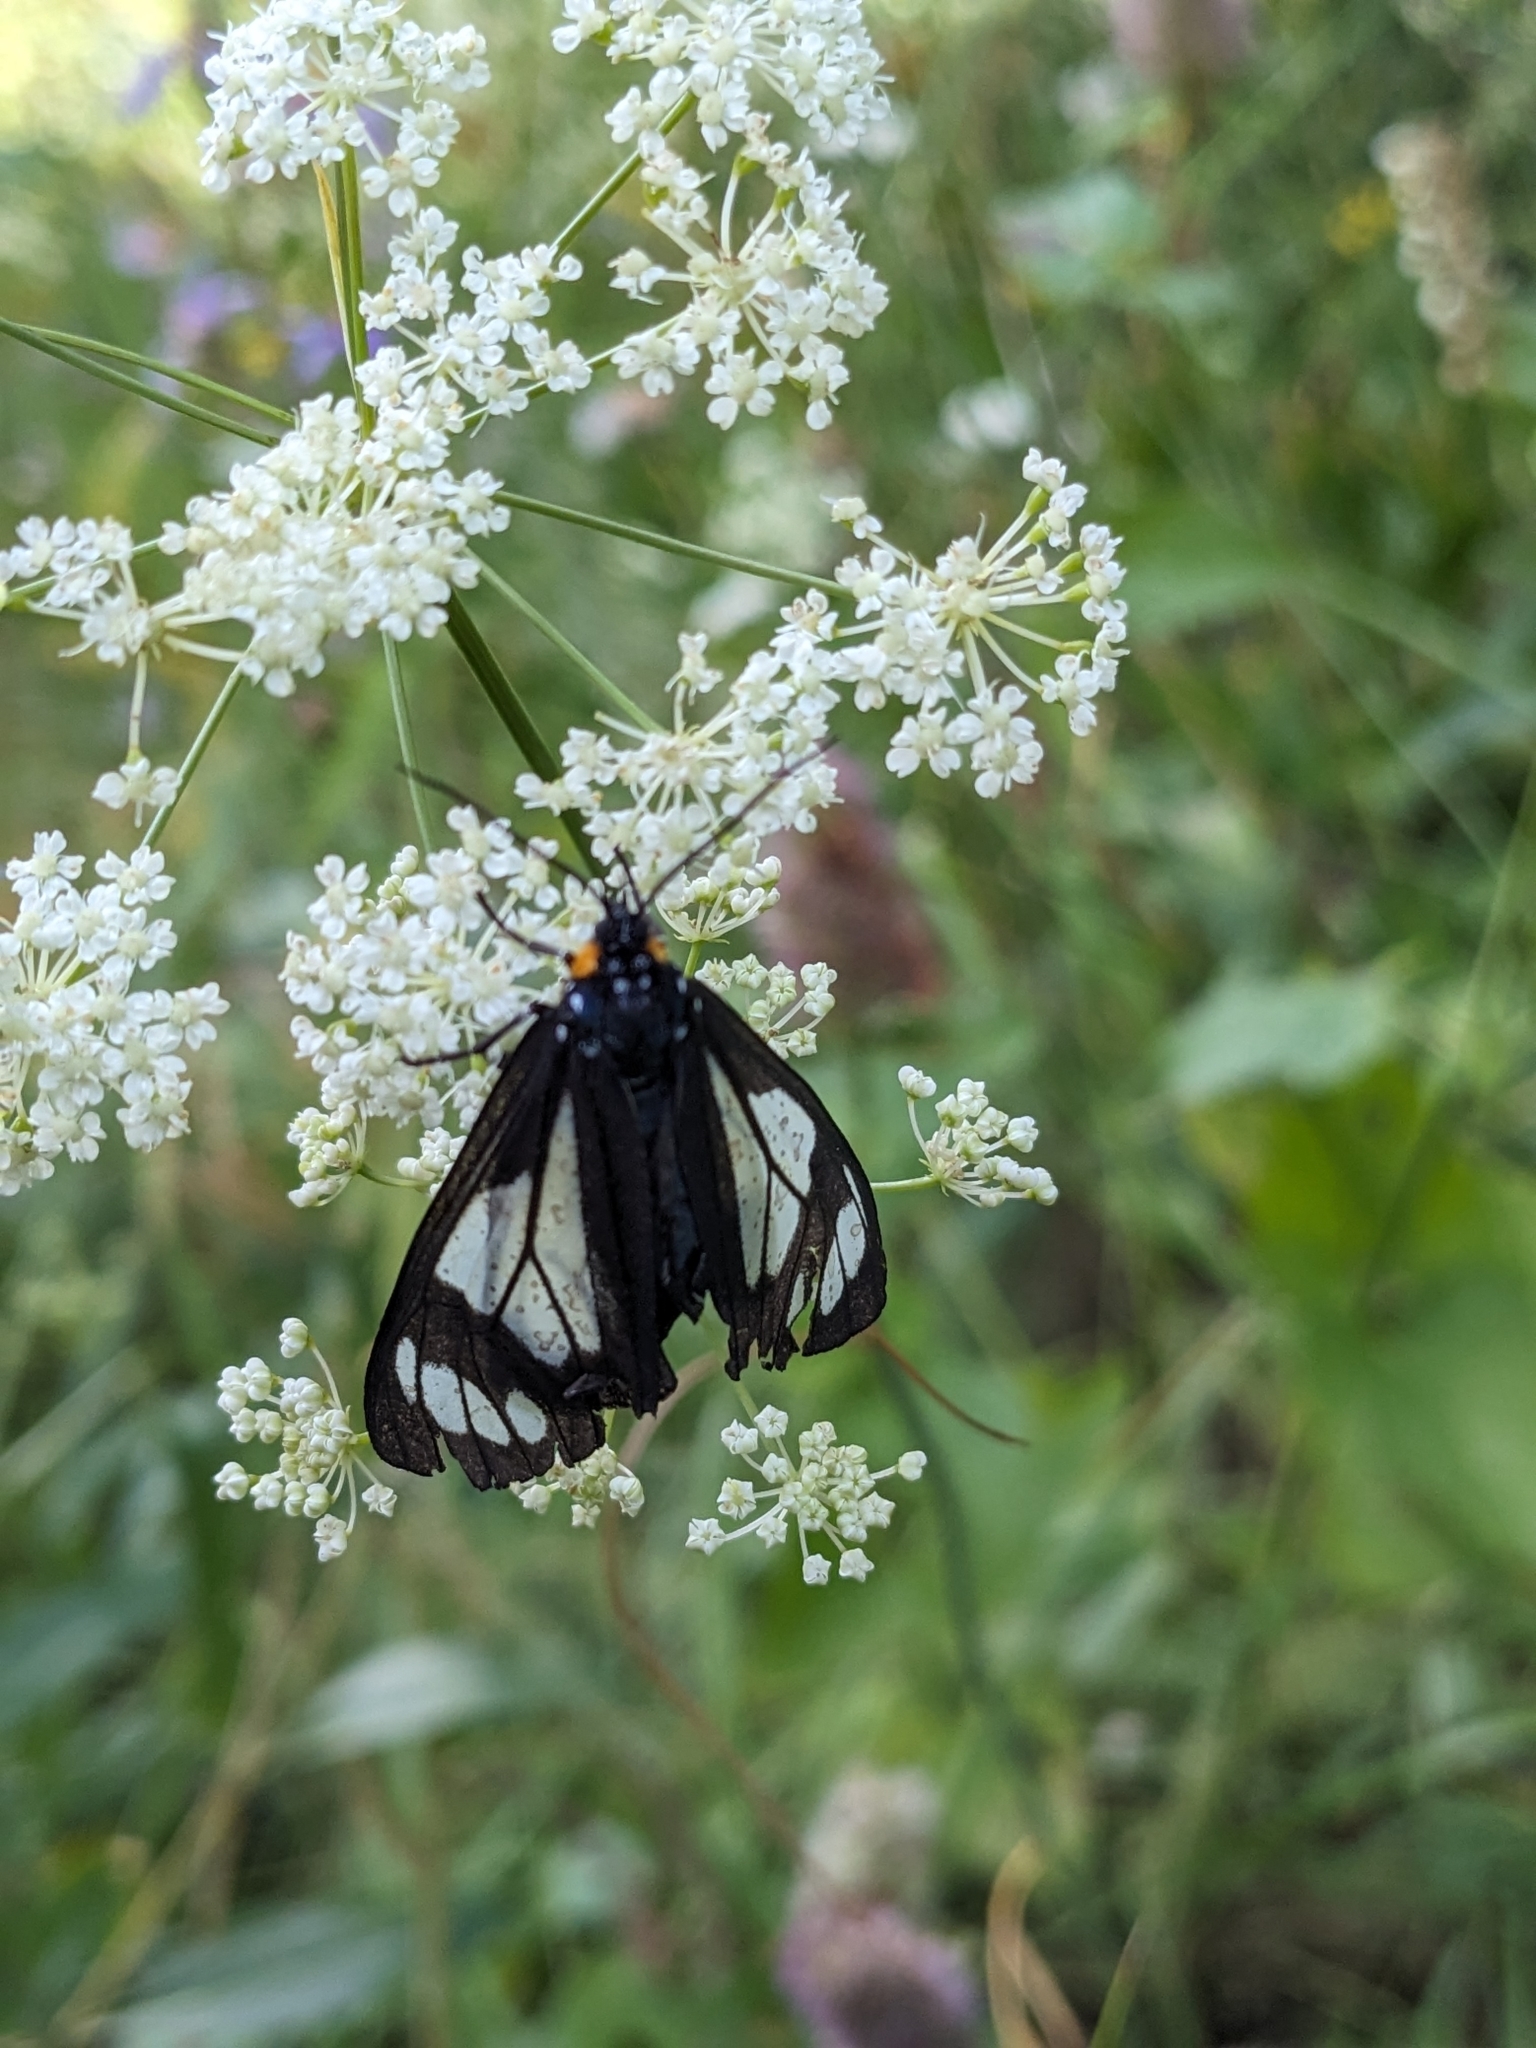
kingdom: Animalia
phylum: Arthropoda
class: Insecta
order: Lepidoptera
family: Erebidae
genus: Gnophaela
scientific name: Gnophaela vermiculata
